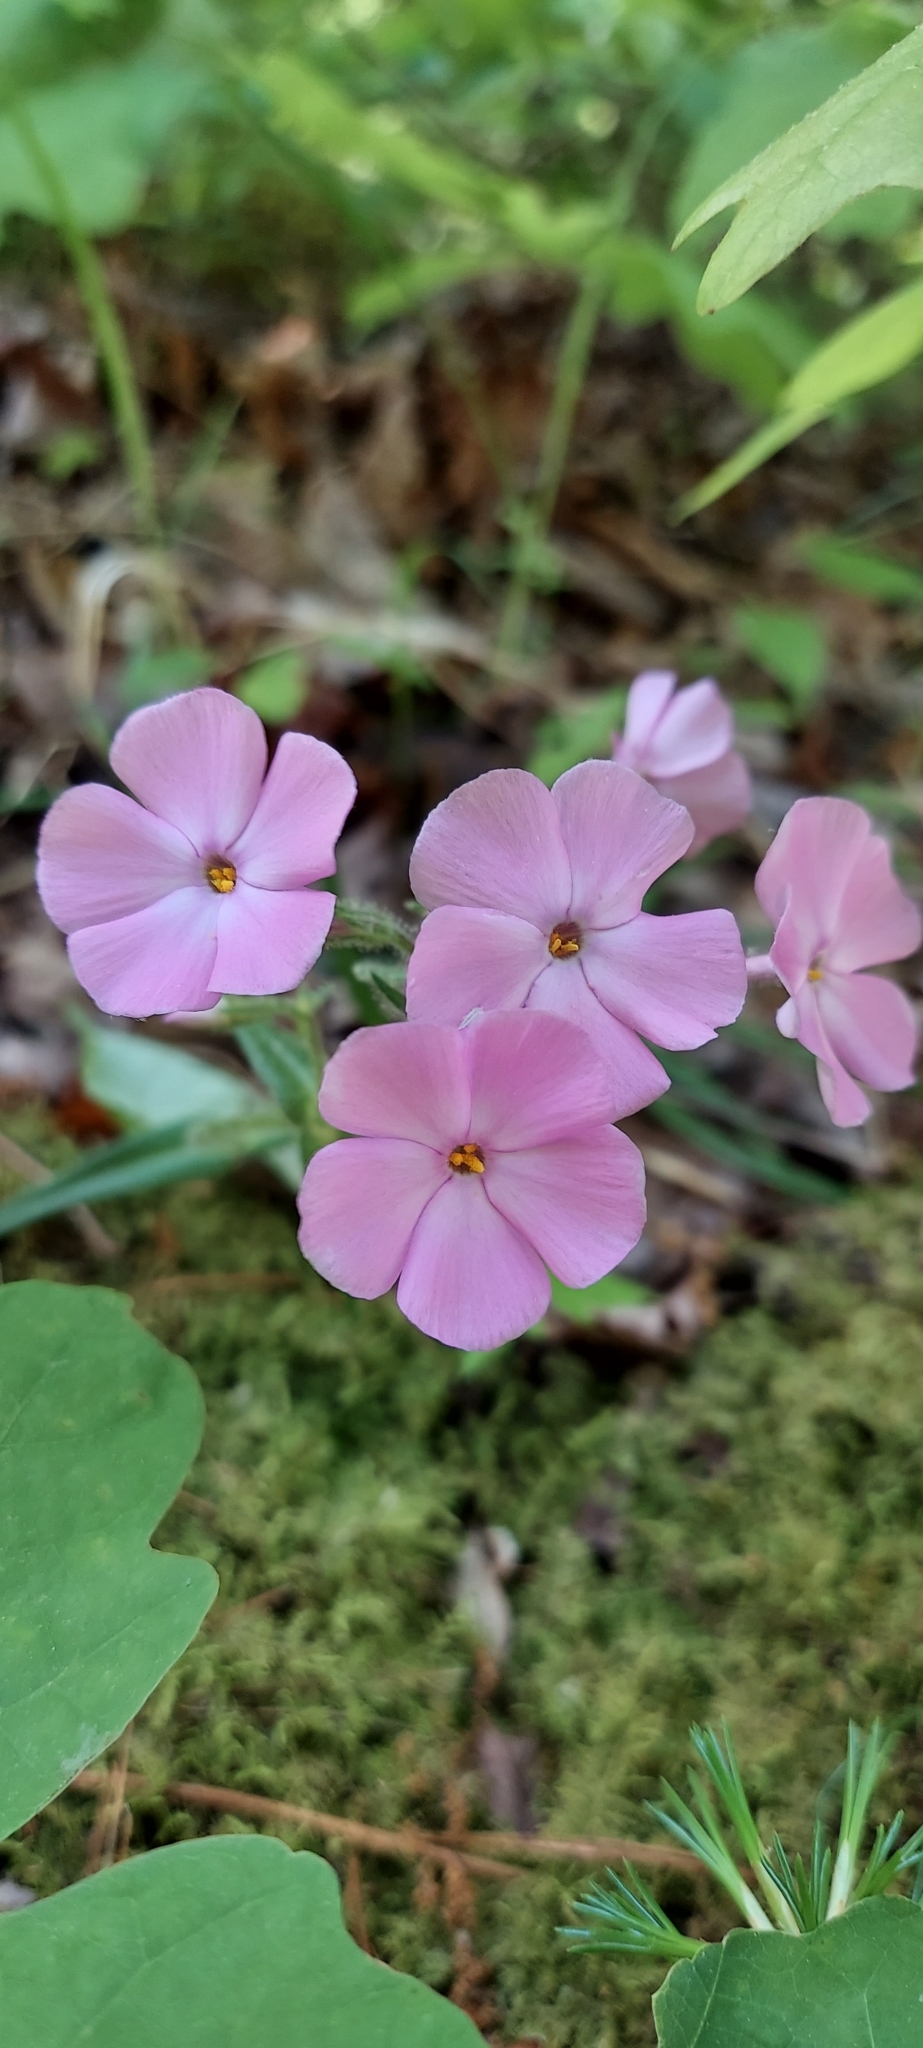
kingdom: Plantae
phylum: Tracheophyta
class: Magnoliopsida
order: Ericales
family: Polemoniaceae
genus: Phlox
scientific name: Phlox buckleyi
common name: Shale-barren phlox
